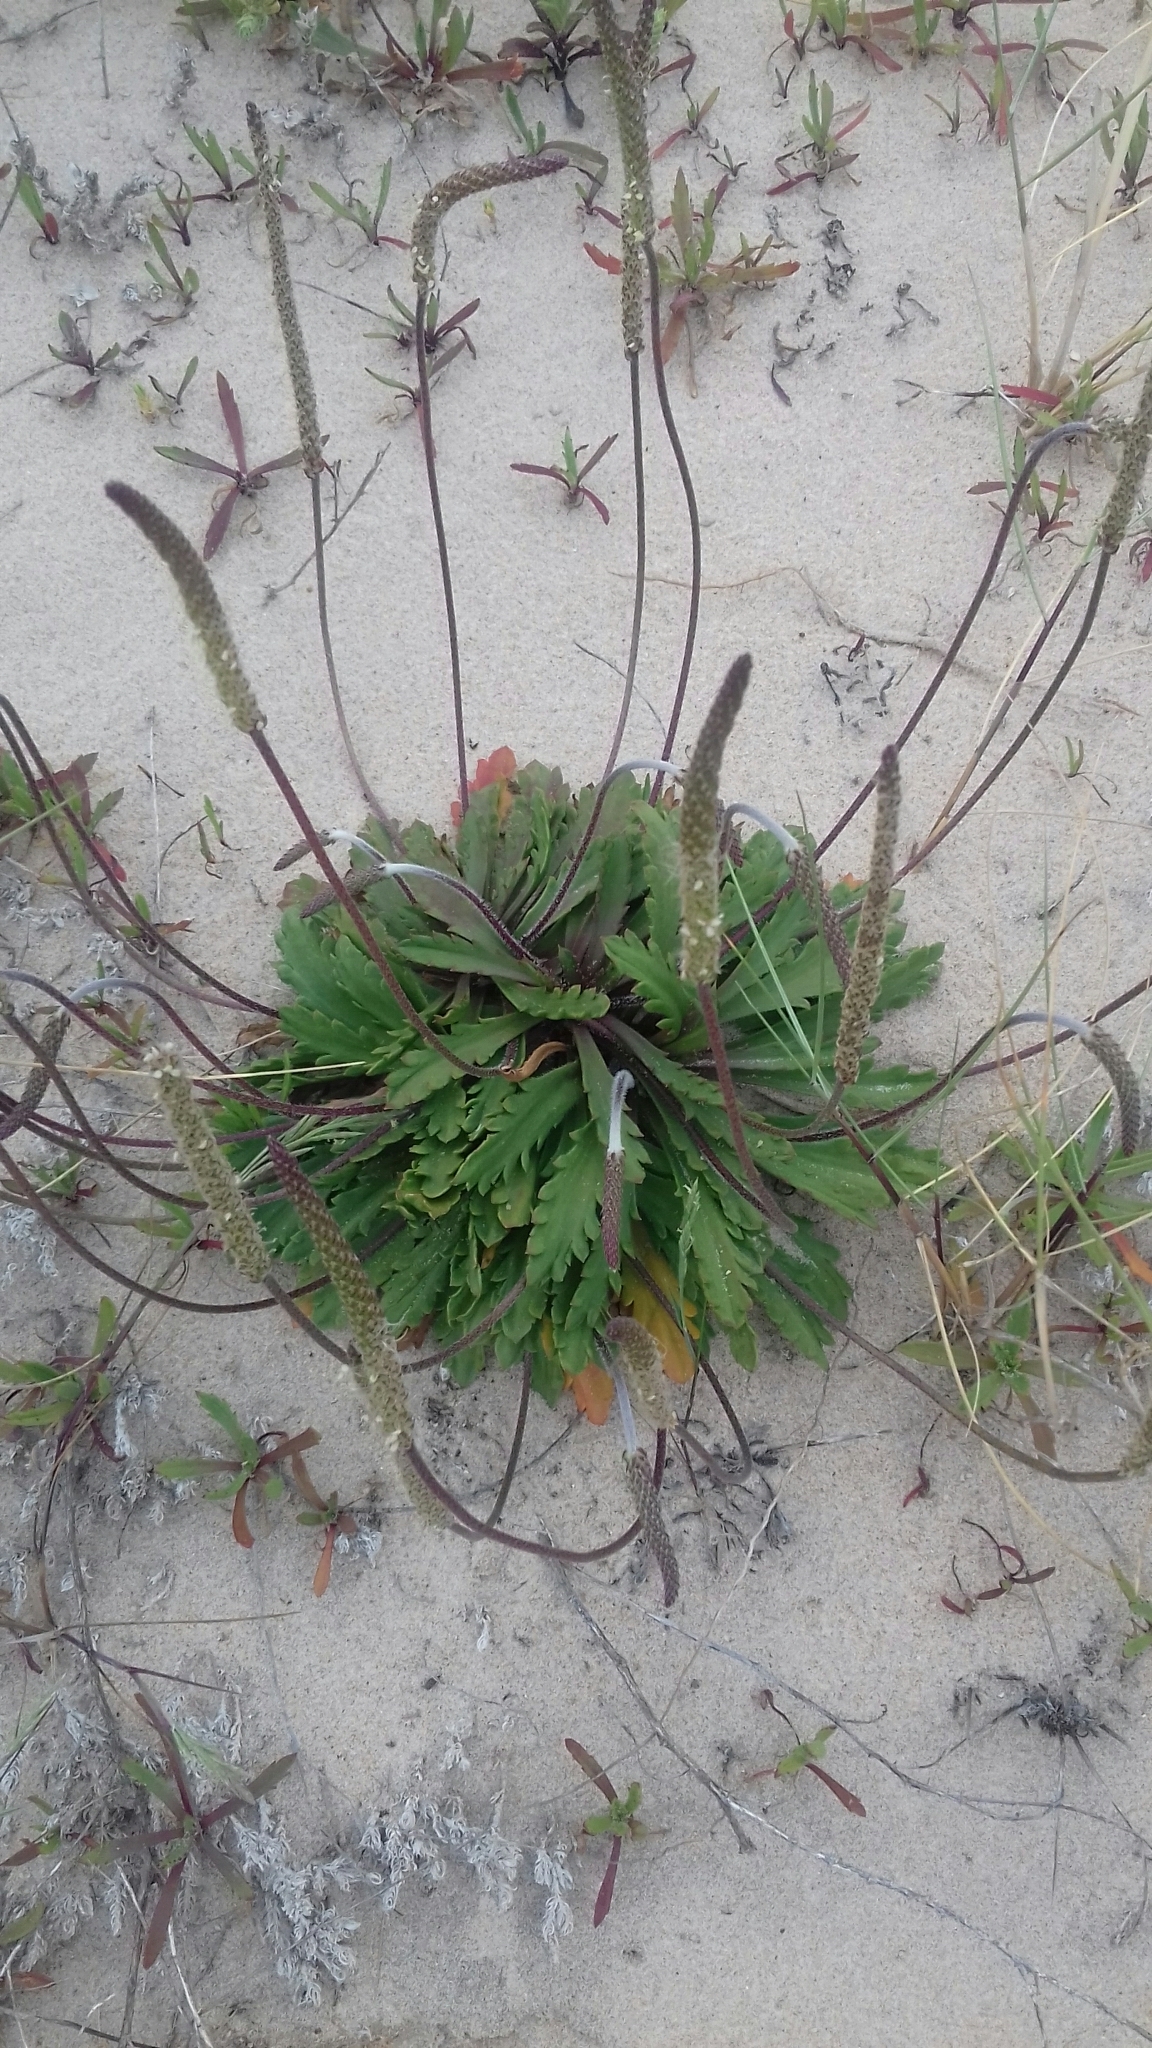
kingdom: Plantae
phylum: Tracheophyta
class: Magnoliopsida
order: Lamiales
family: Plantaginaceae
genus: Plantago
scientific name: Plantago macrorhiza
